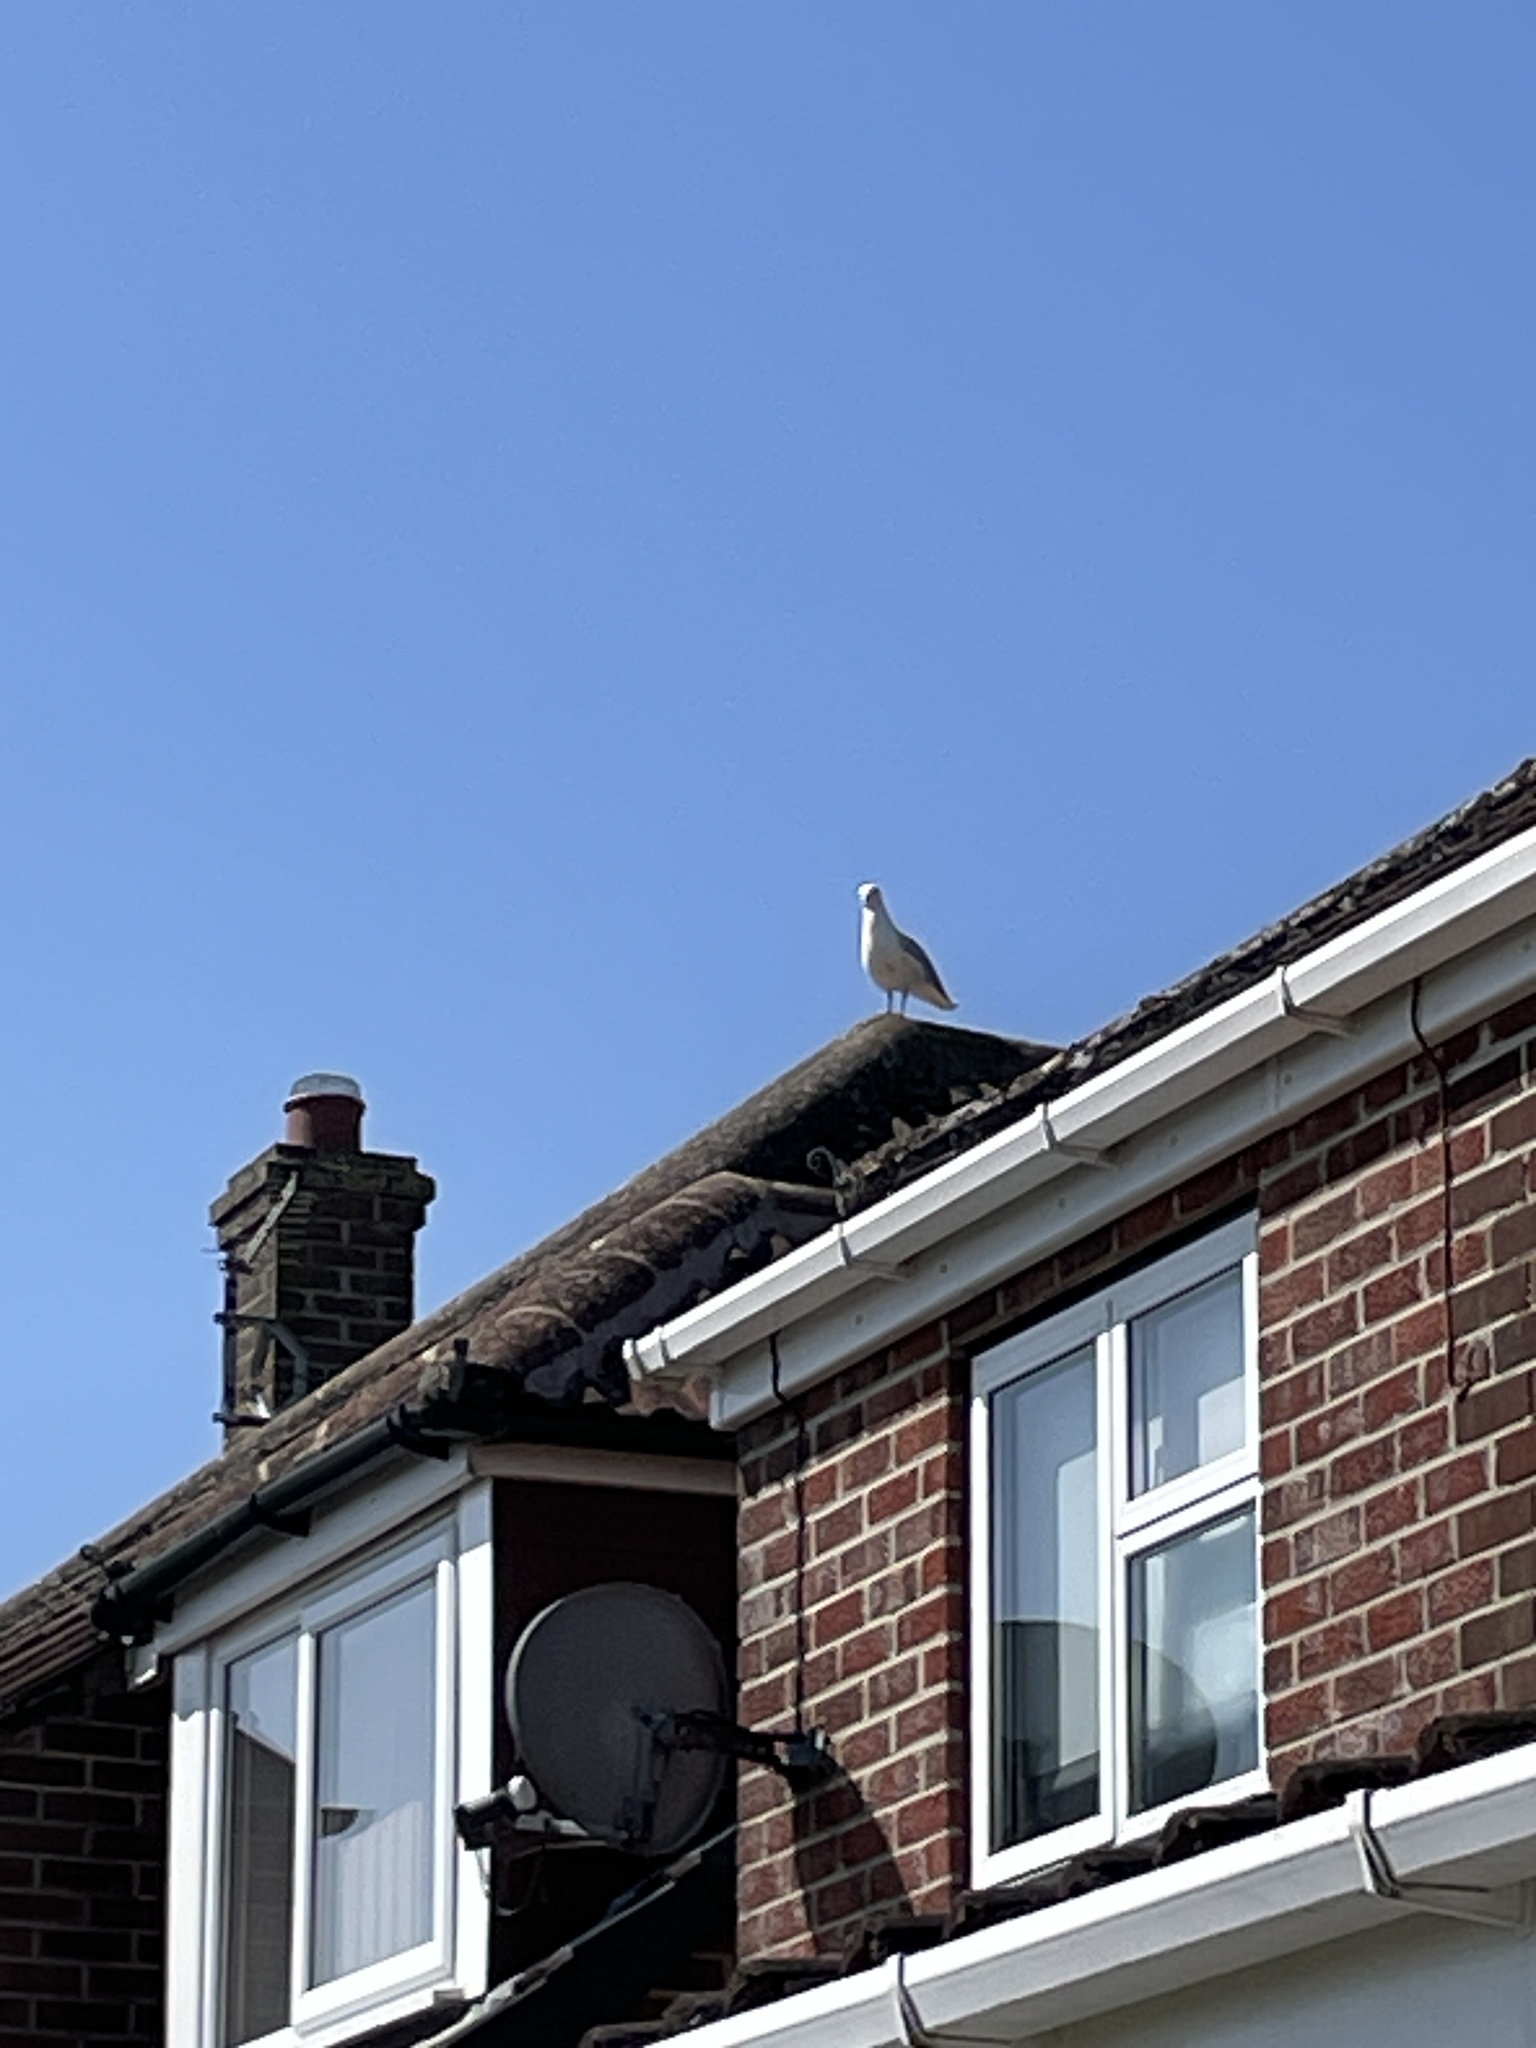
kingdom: Animalia
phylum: Chordata
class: Aves
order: Charadriiformes
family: Laridae
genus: Larus
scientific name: Larus argentatus
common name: Herring gull
